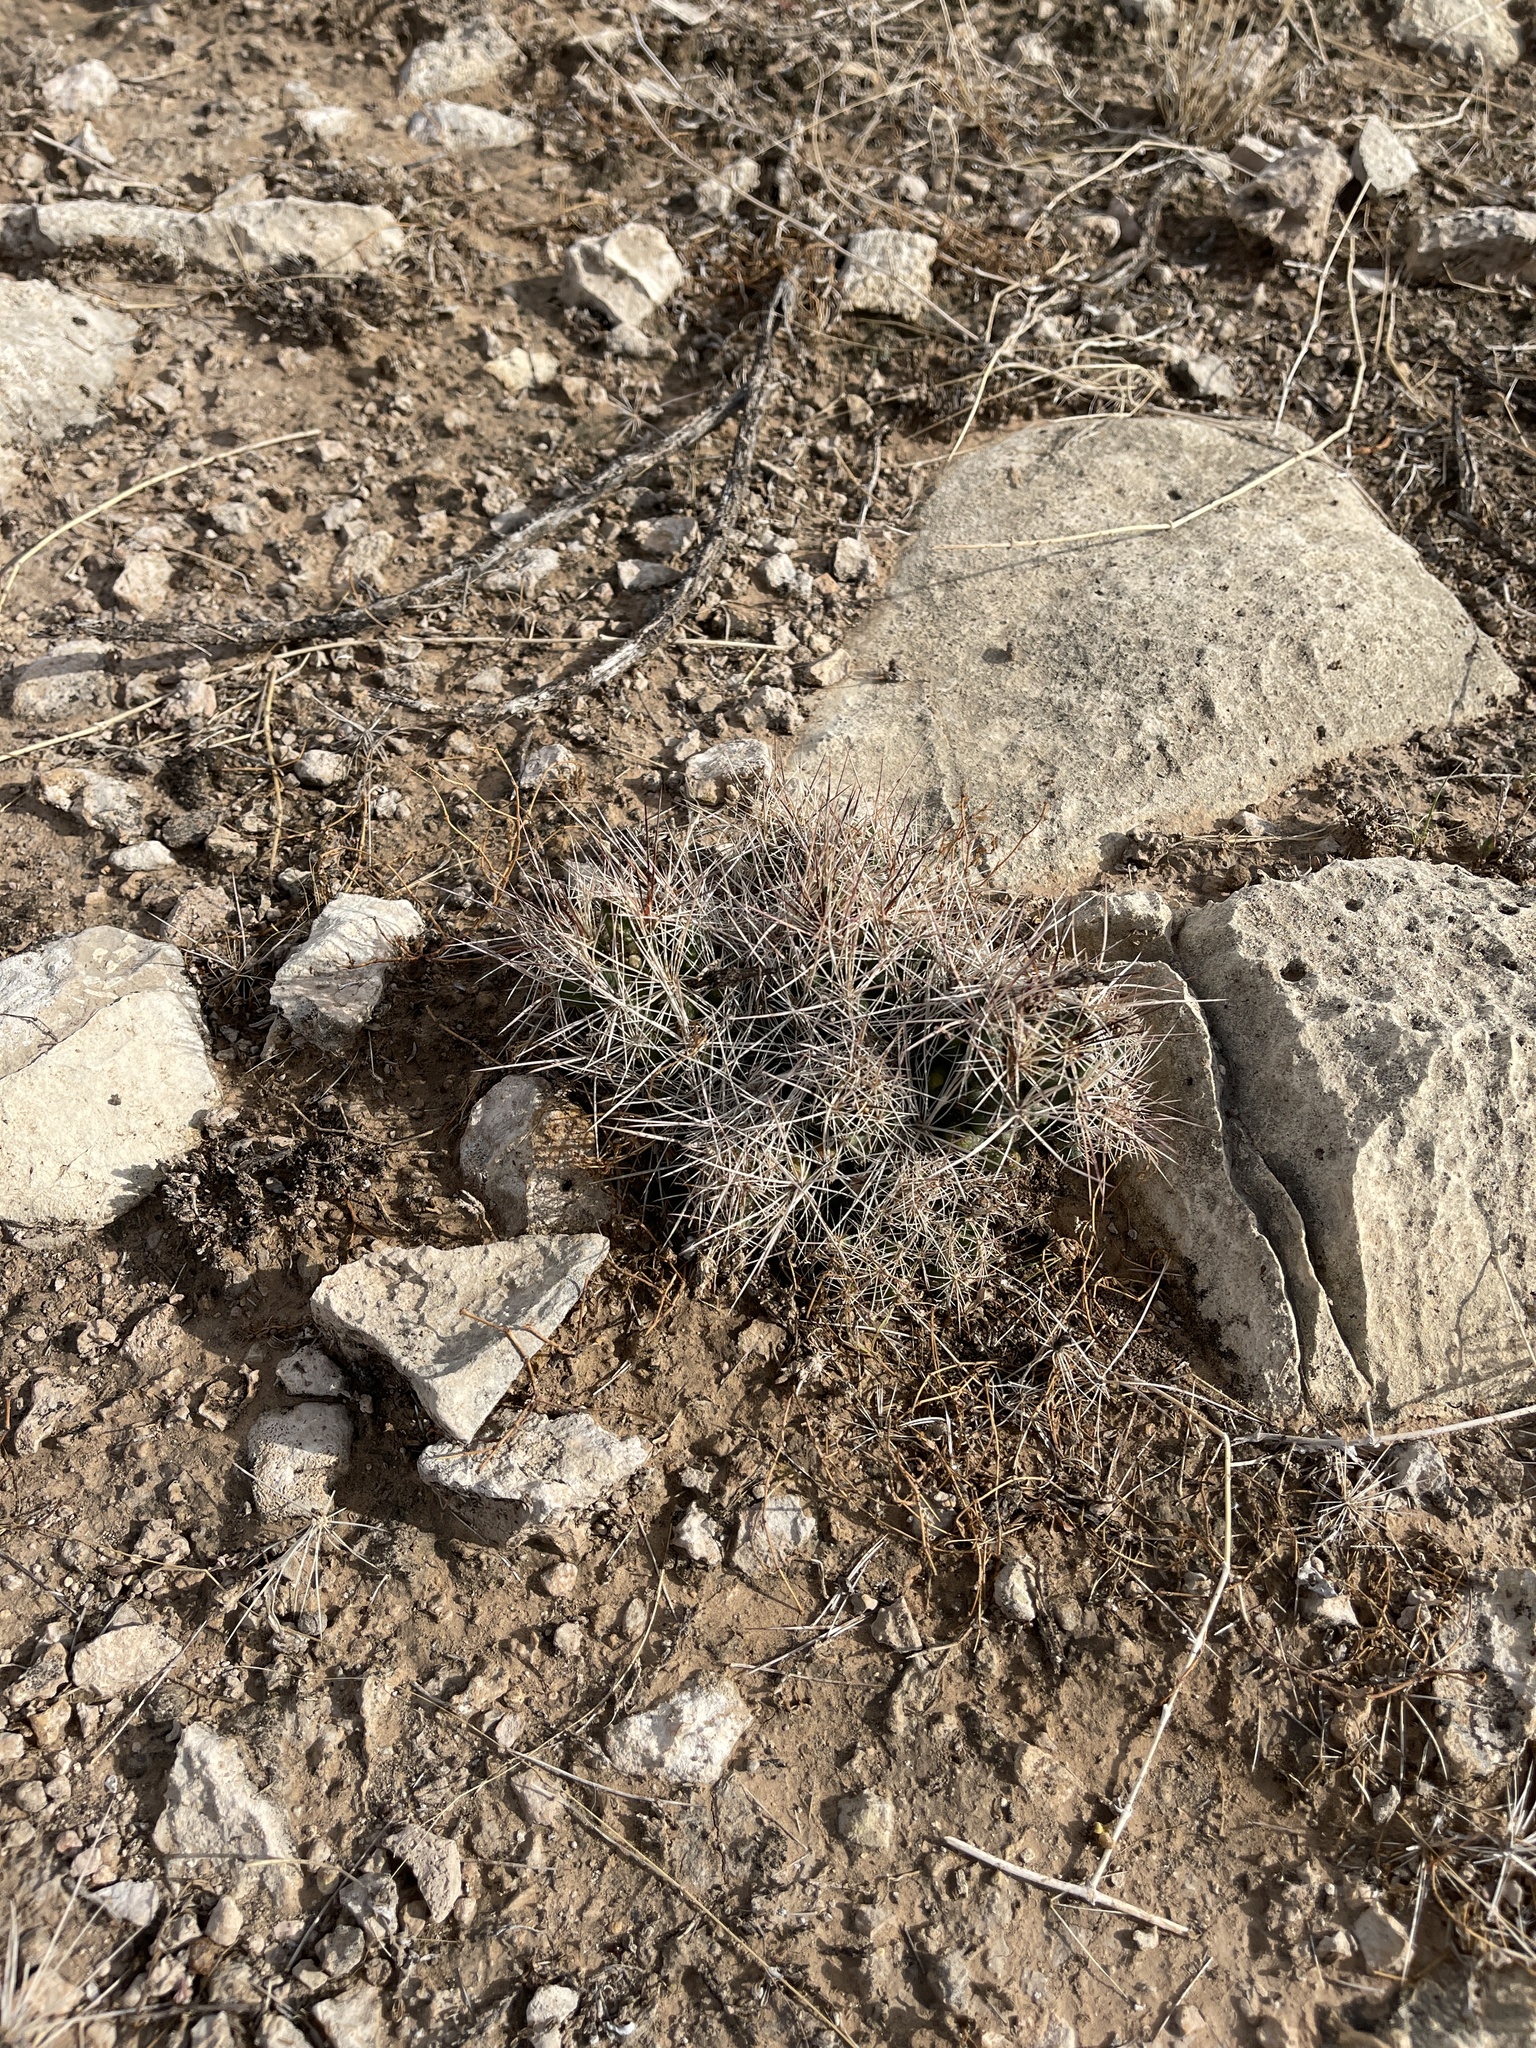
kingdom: Plantae
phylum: Tracheophyta
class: Magnoliopsida
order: Caryophyllales
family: Cactaceae
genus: Coryphantha
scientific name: Coryphantha macromeris
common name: Nipple beehive cactus
